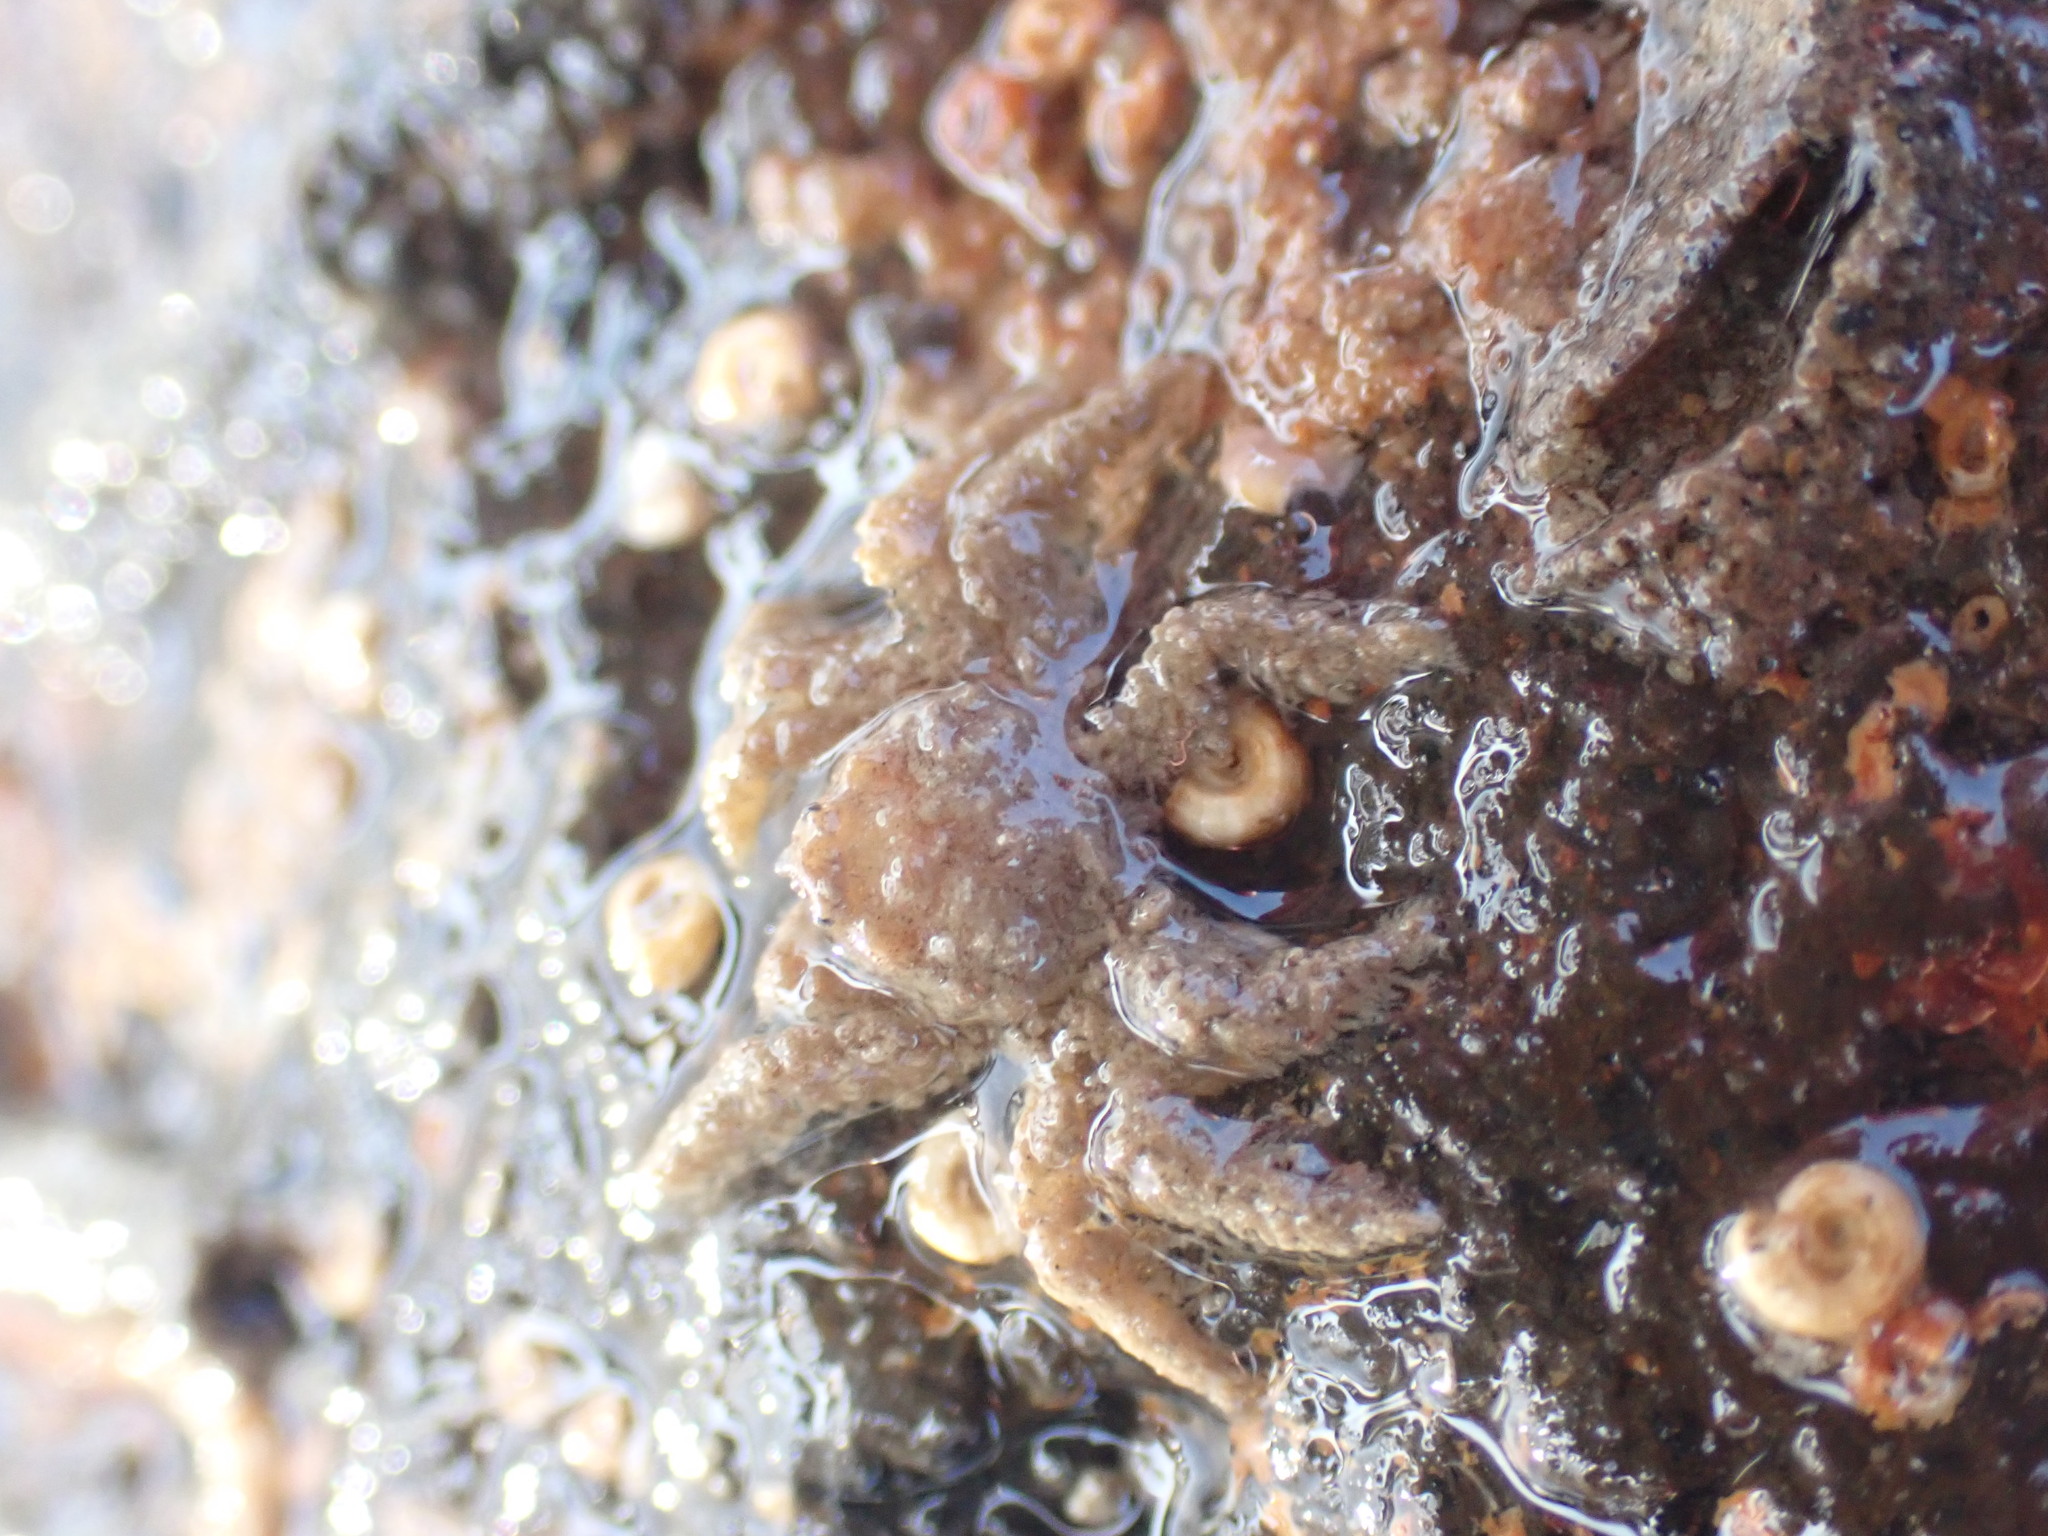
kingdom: Animalia
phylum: Arthropoda
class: Malacostraca
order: Decapoda
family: Hymenosomatidae
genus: Neohymenicus
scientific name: Neohymenicus pubescens
